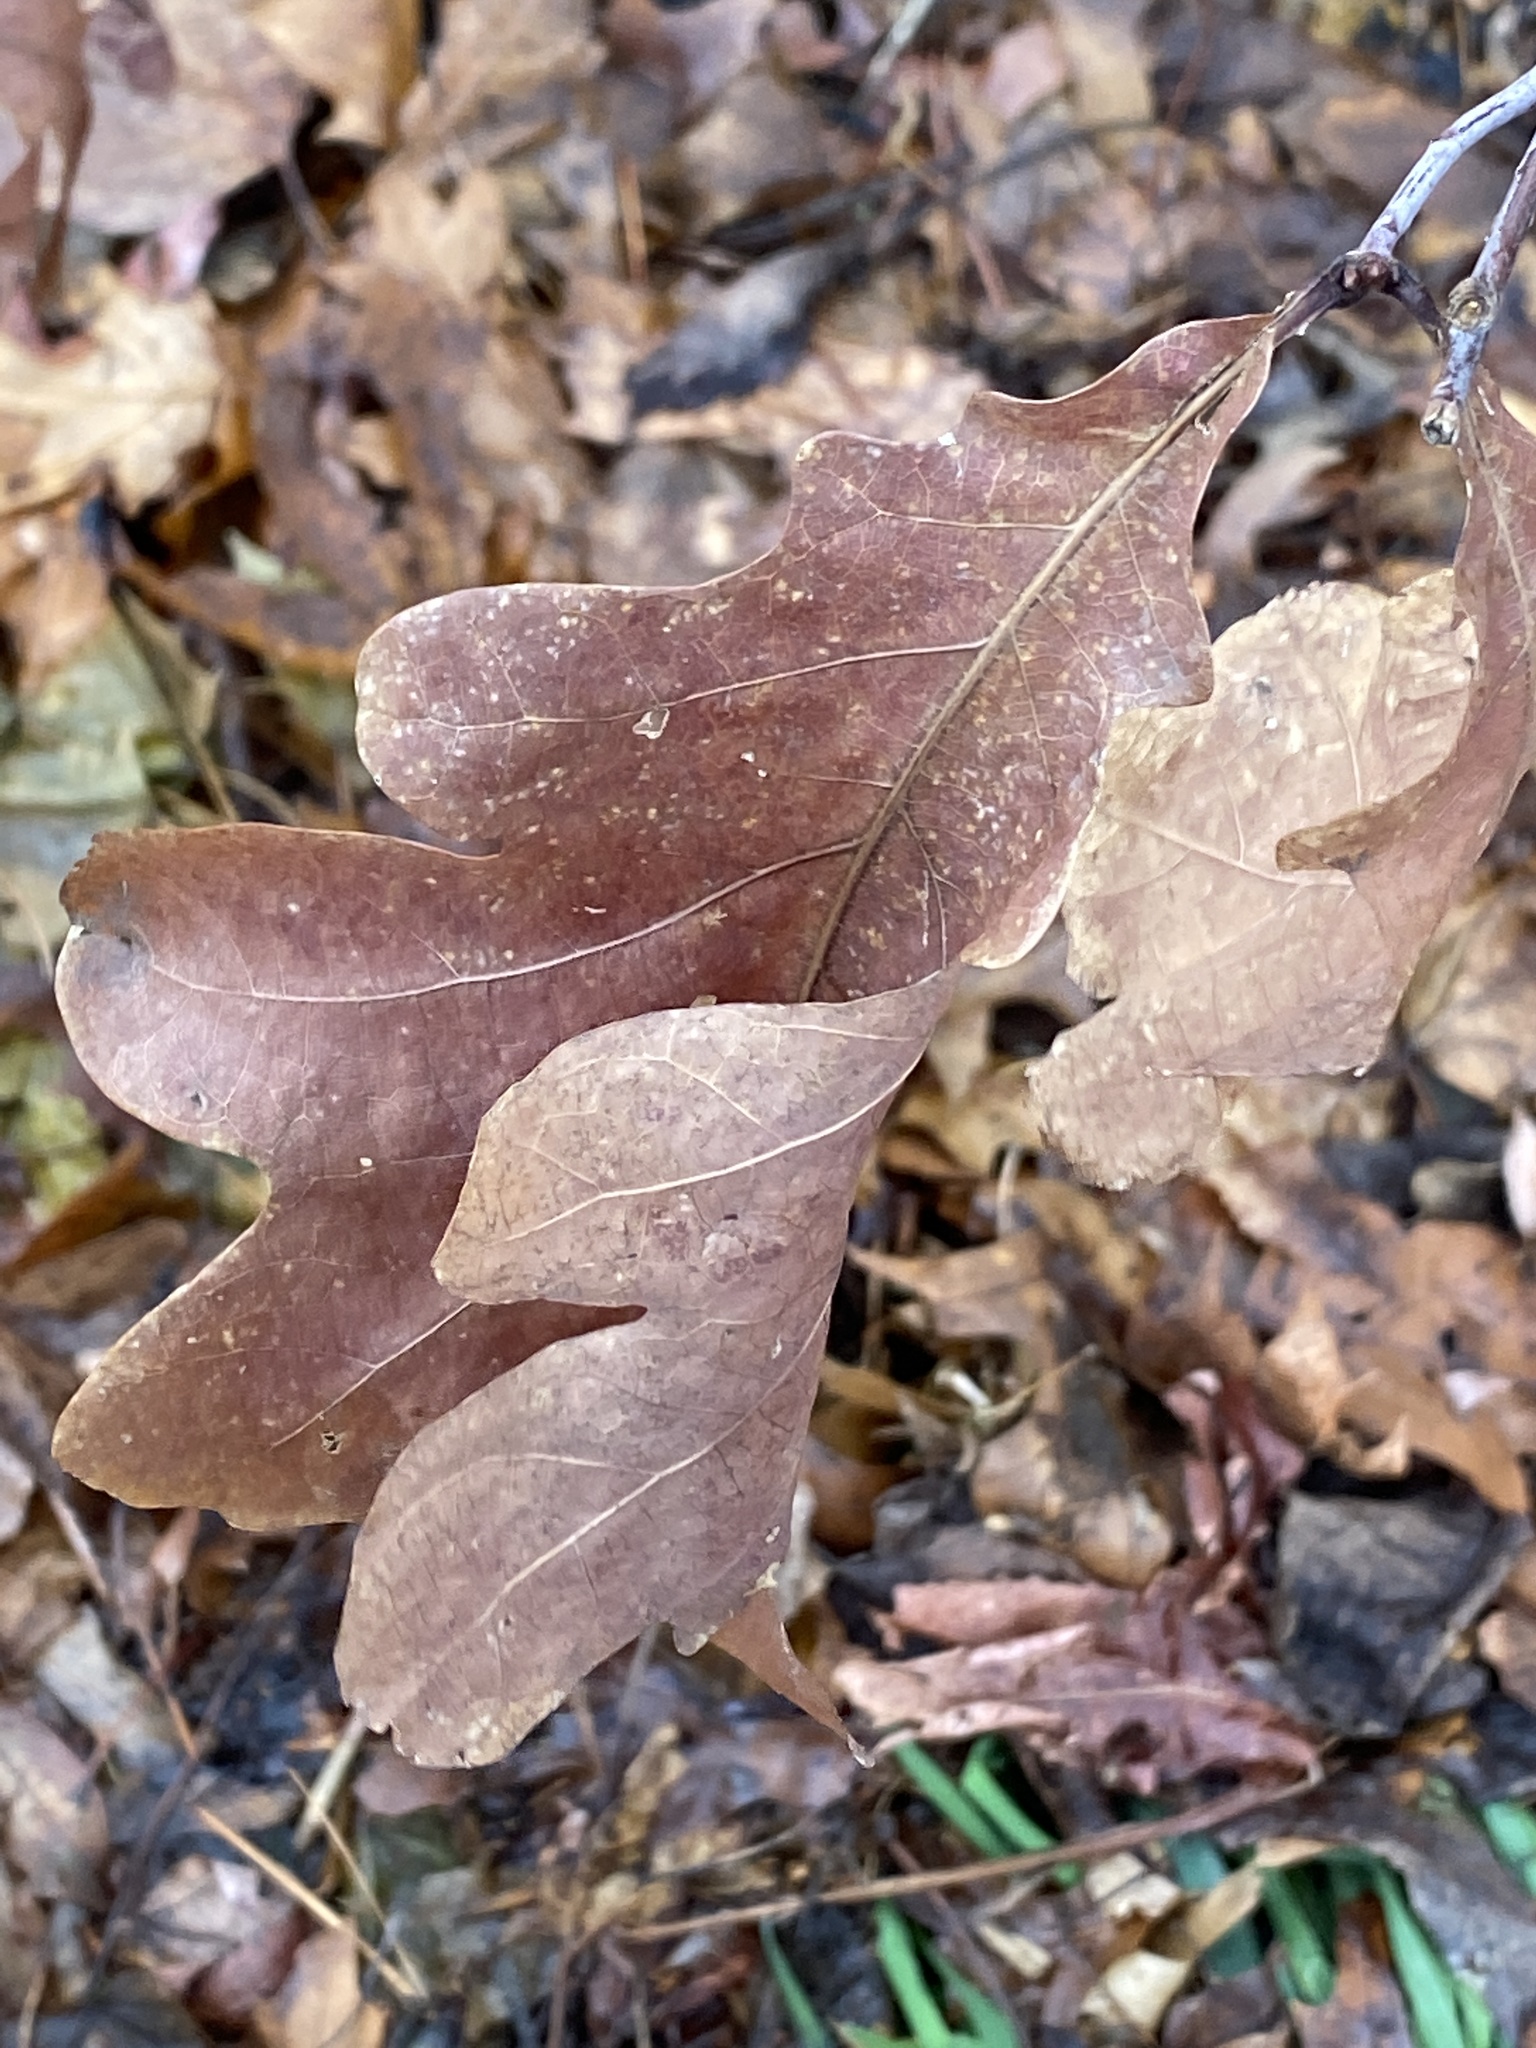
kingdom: Plantae
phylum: Tracheophyta
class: Magnoliopsida
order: Fagales
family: Fagaceae
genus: Quercus
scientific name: Quercus alba
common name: White oak
